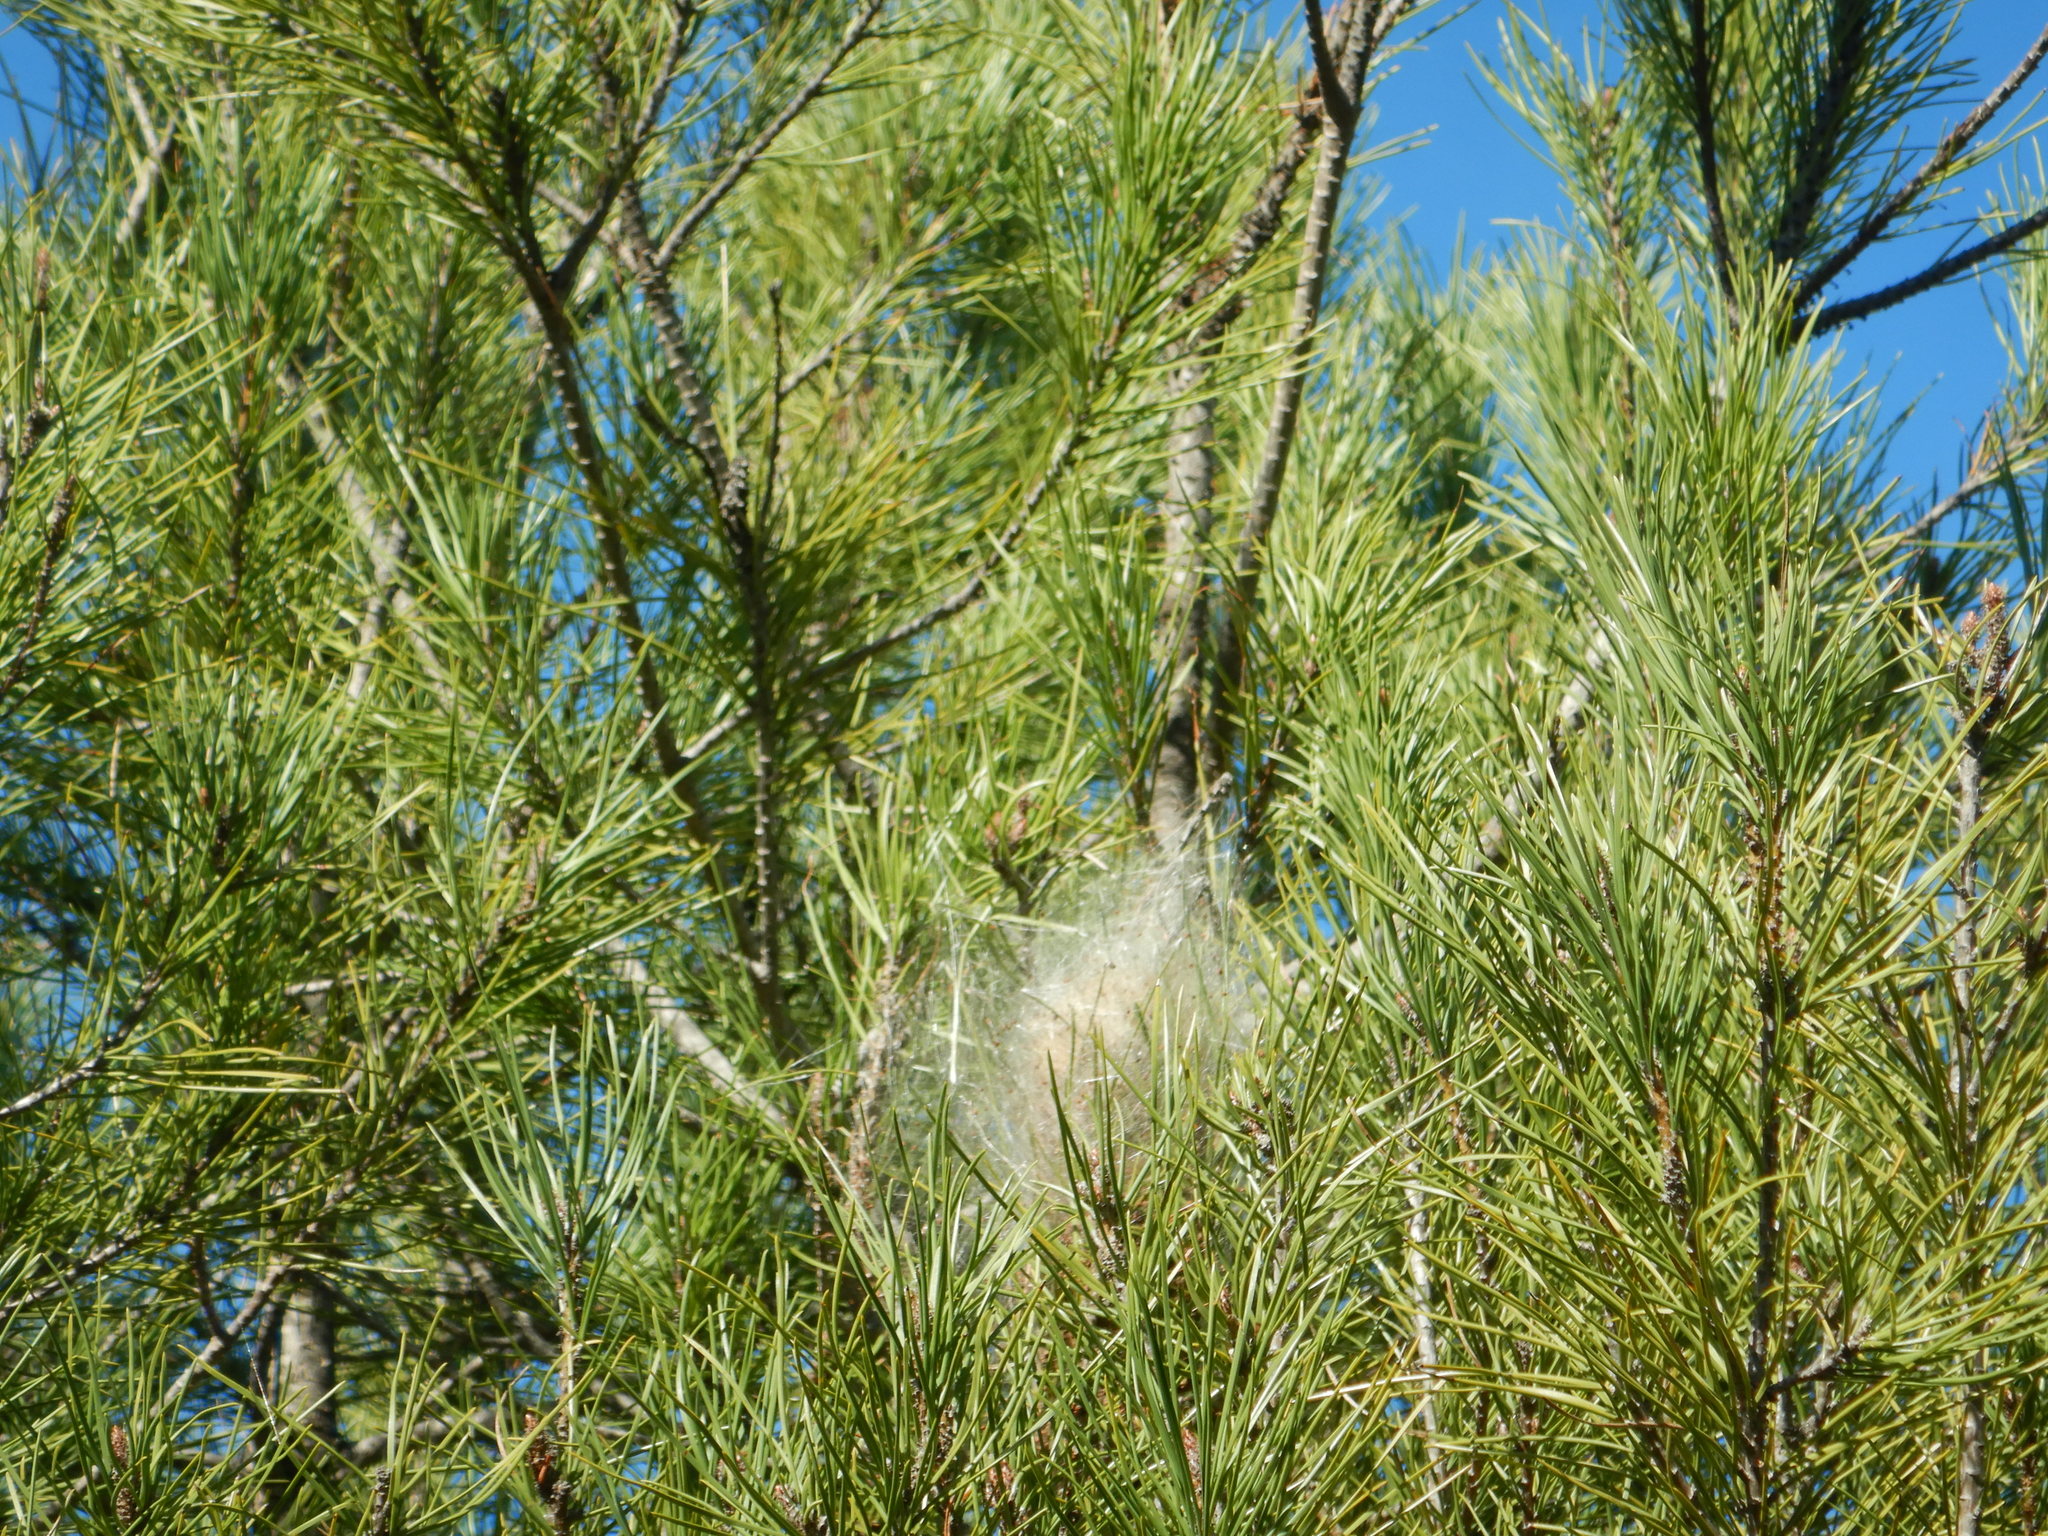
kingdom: Animalia
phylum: Arthropoda
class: Insecta
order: Lepidoptera
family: Notodontidae
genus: Thaumetopoea
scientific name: Thaumetopoea pityocampa
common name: Pine processionary
